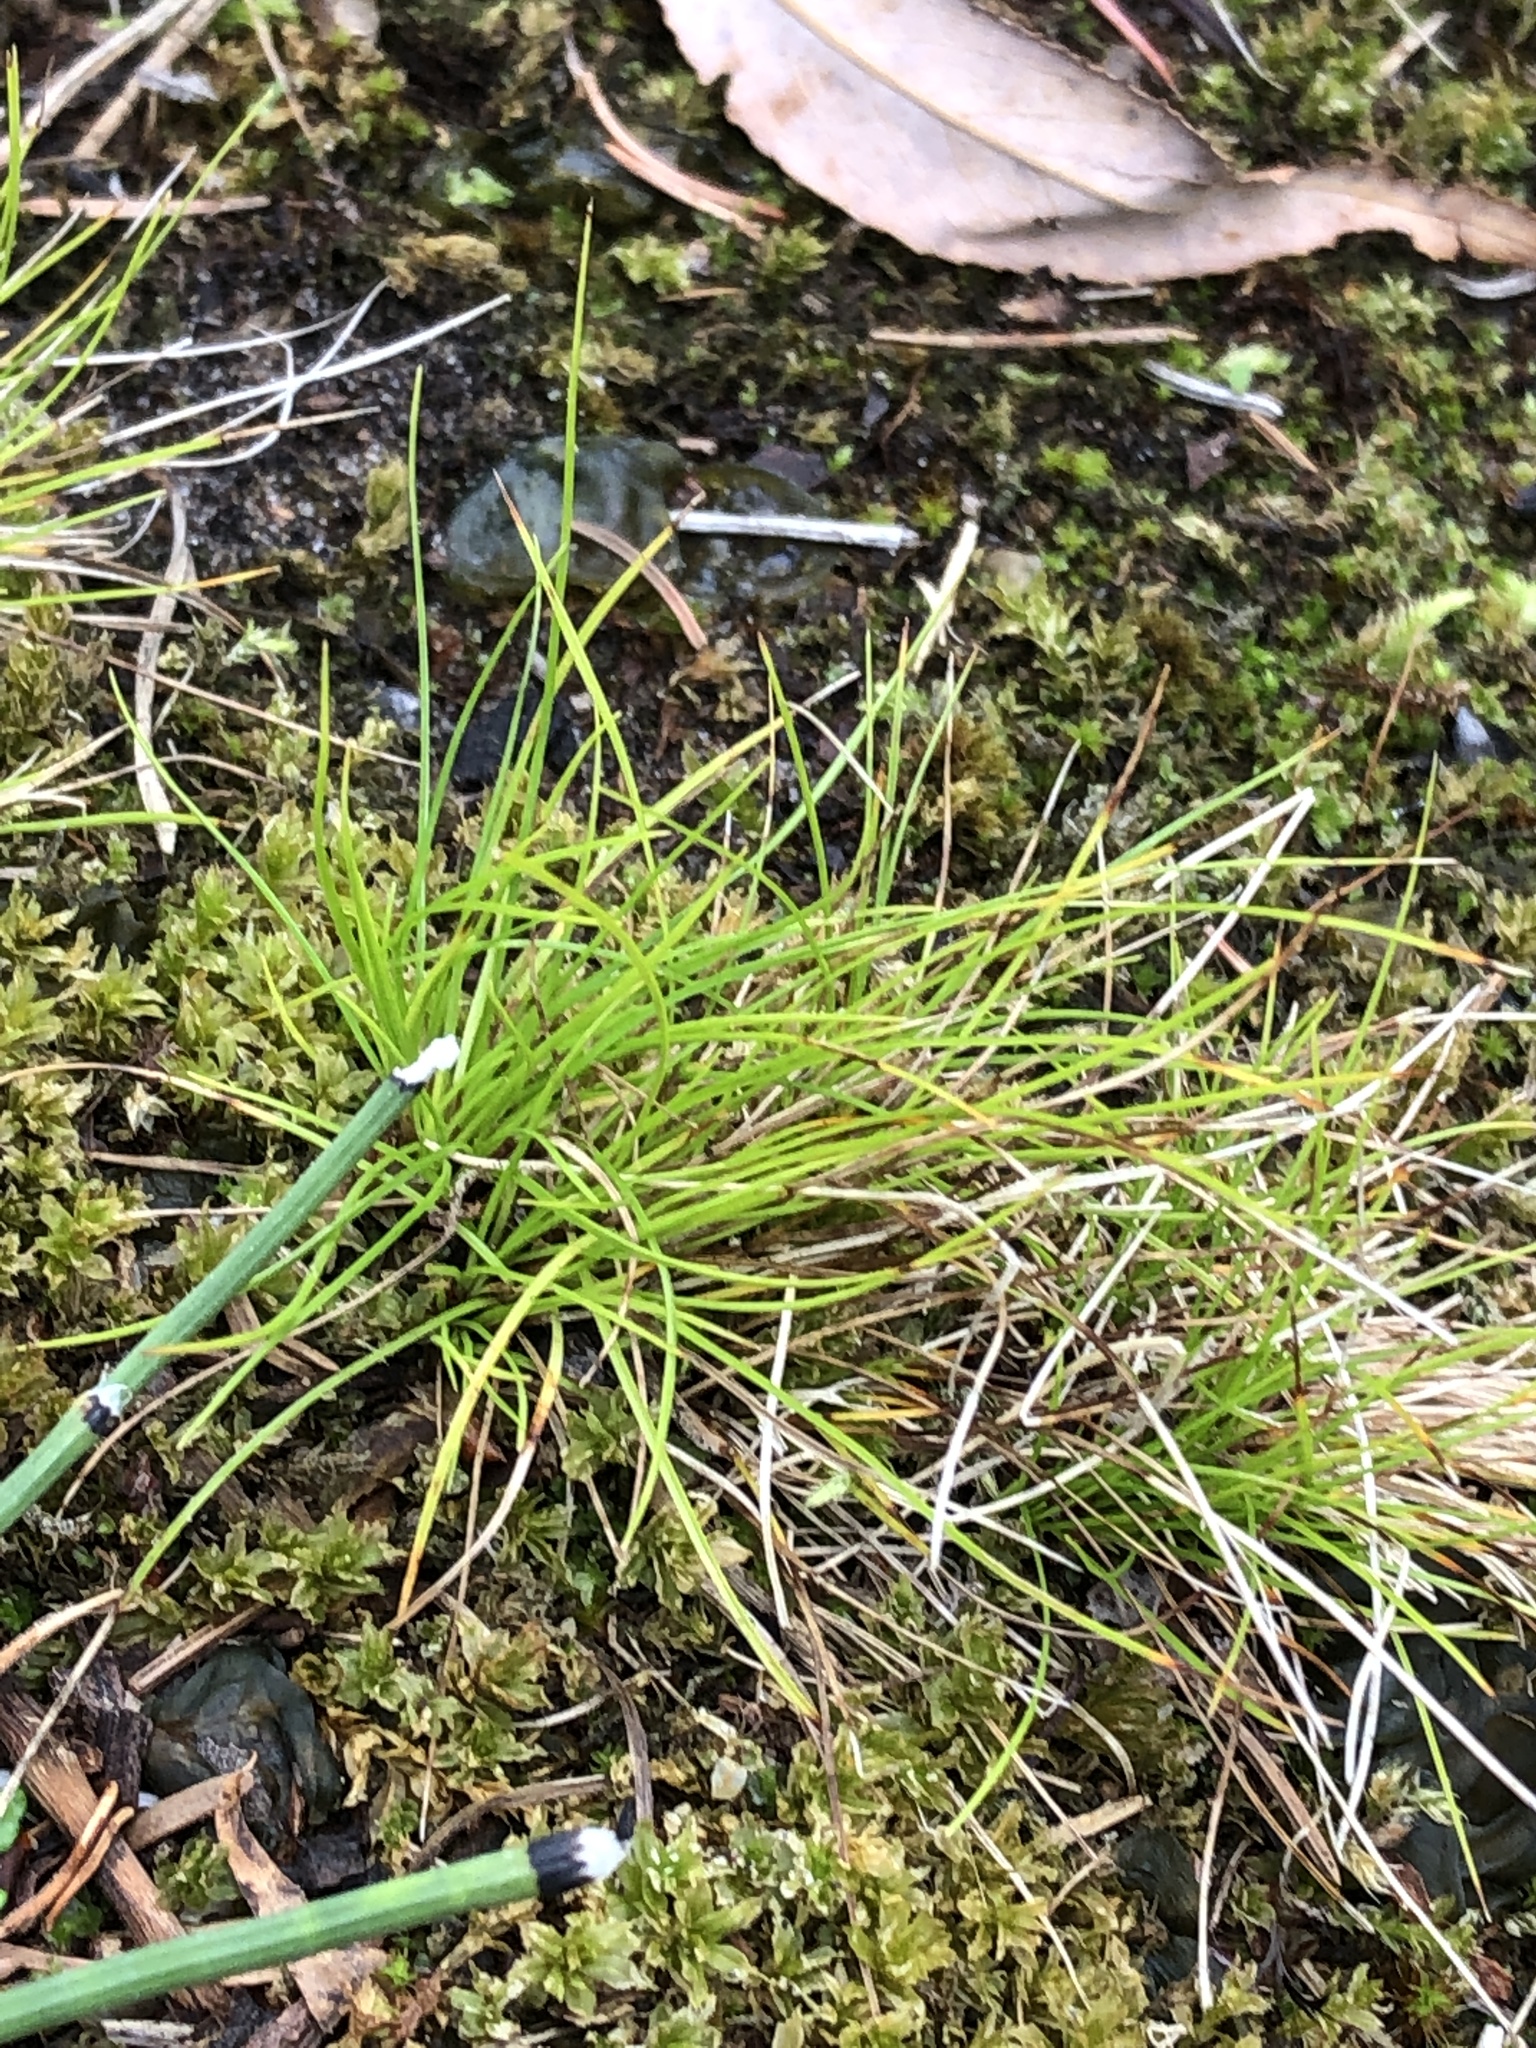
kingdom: Plantae
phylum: Tracheophyta
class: Liliopsida
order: Poales
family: Cyperaceae
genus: Carex
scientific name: Carex eburnea
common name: Bristle-leaved sedge
